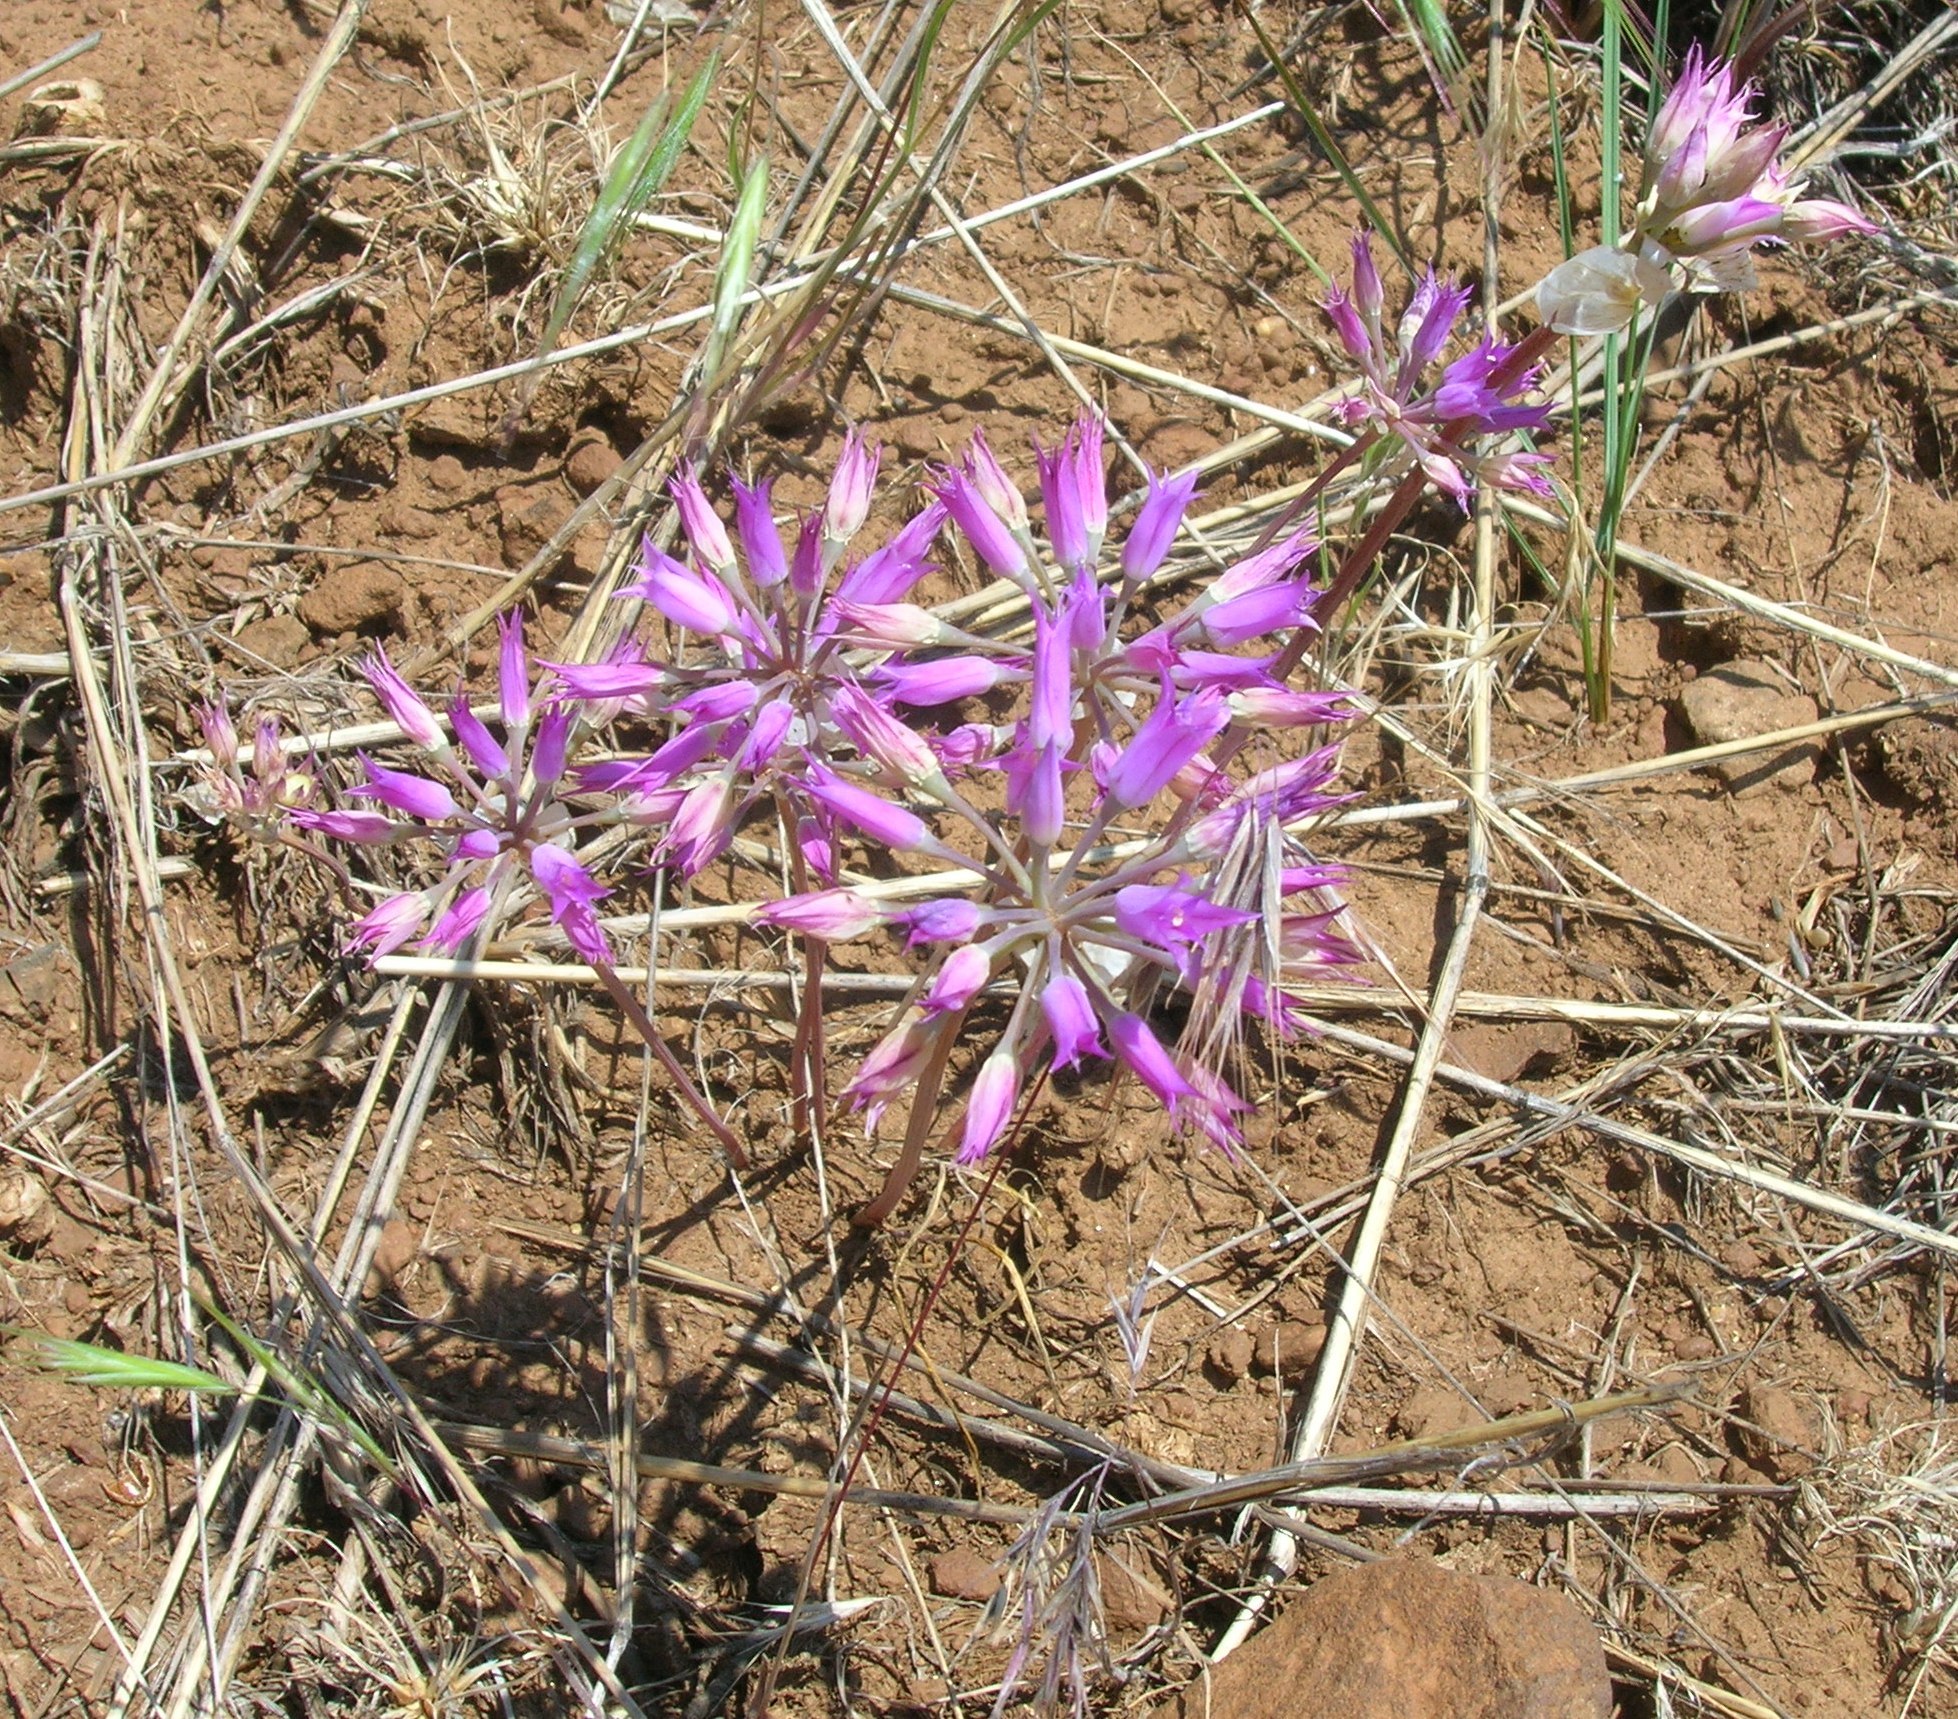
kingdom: Plantae
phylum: Tracheophyta
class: Liliopsida
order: Asparagales
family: Amaryllidaceae
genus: Allium
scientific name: Allium acuminatum
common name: Hooker's onion
